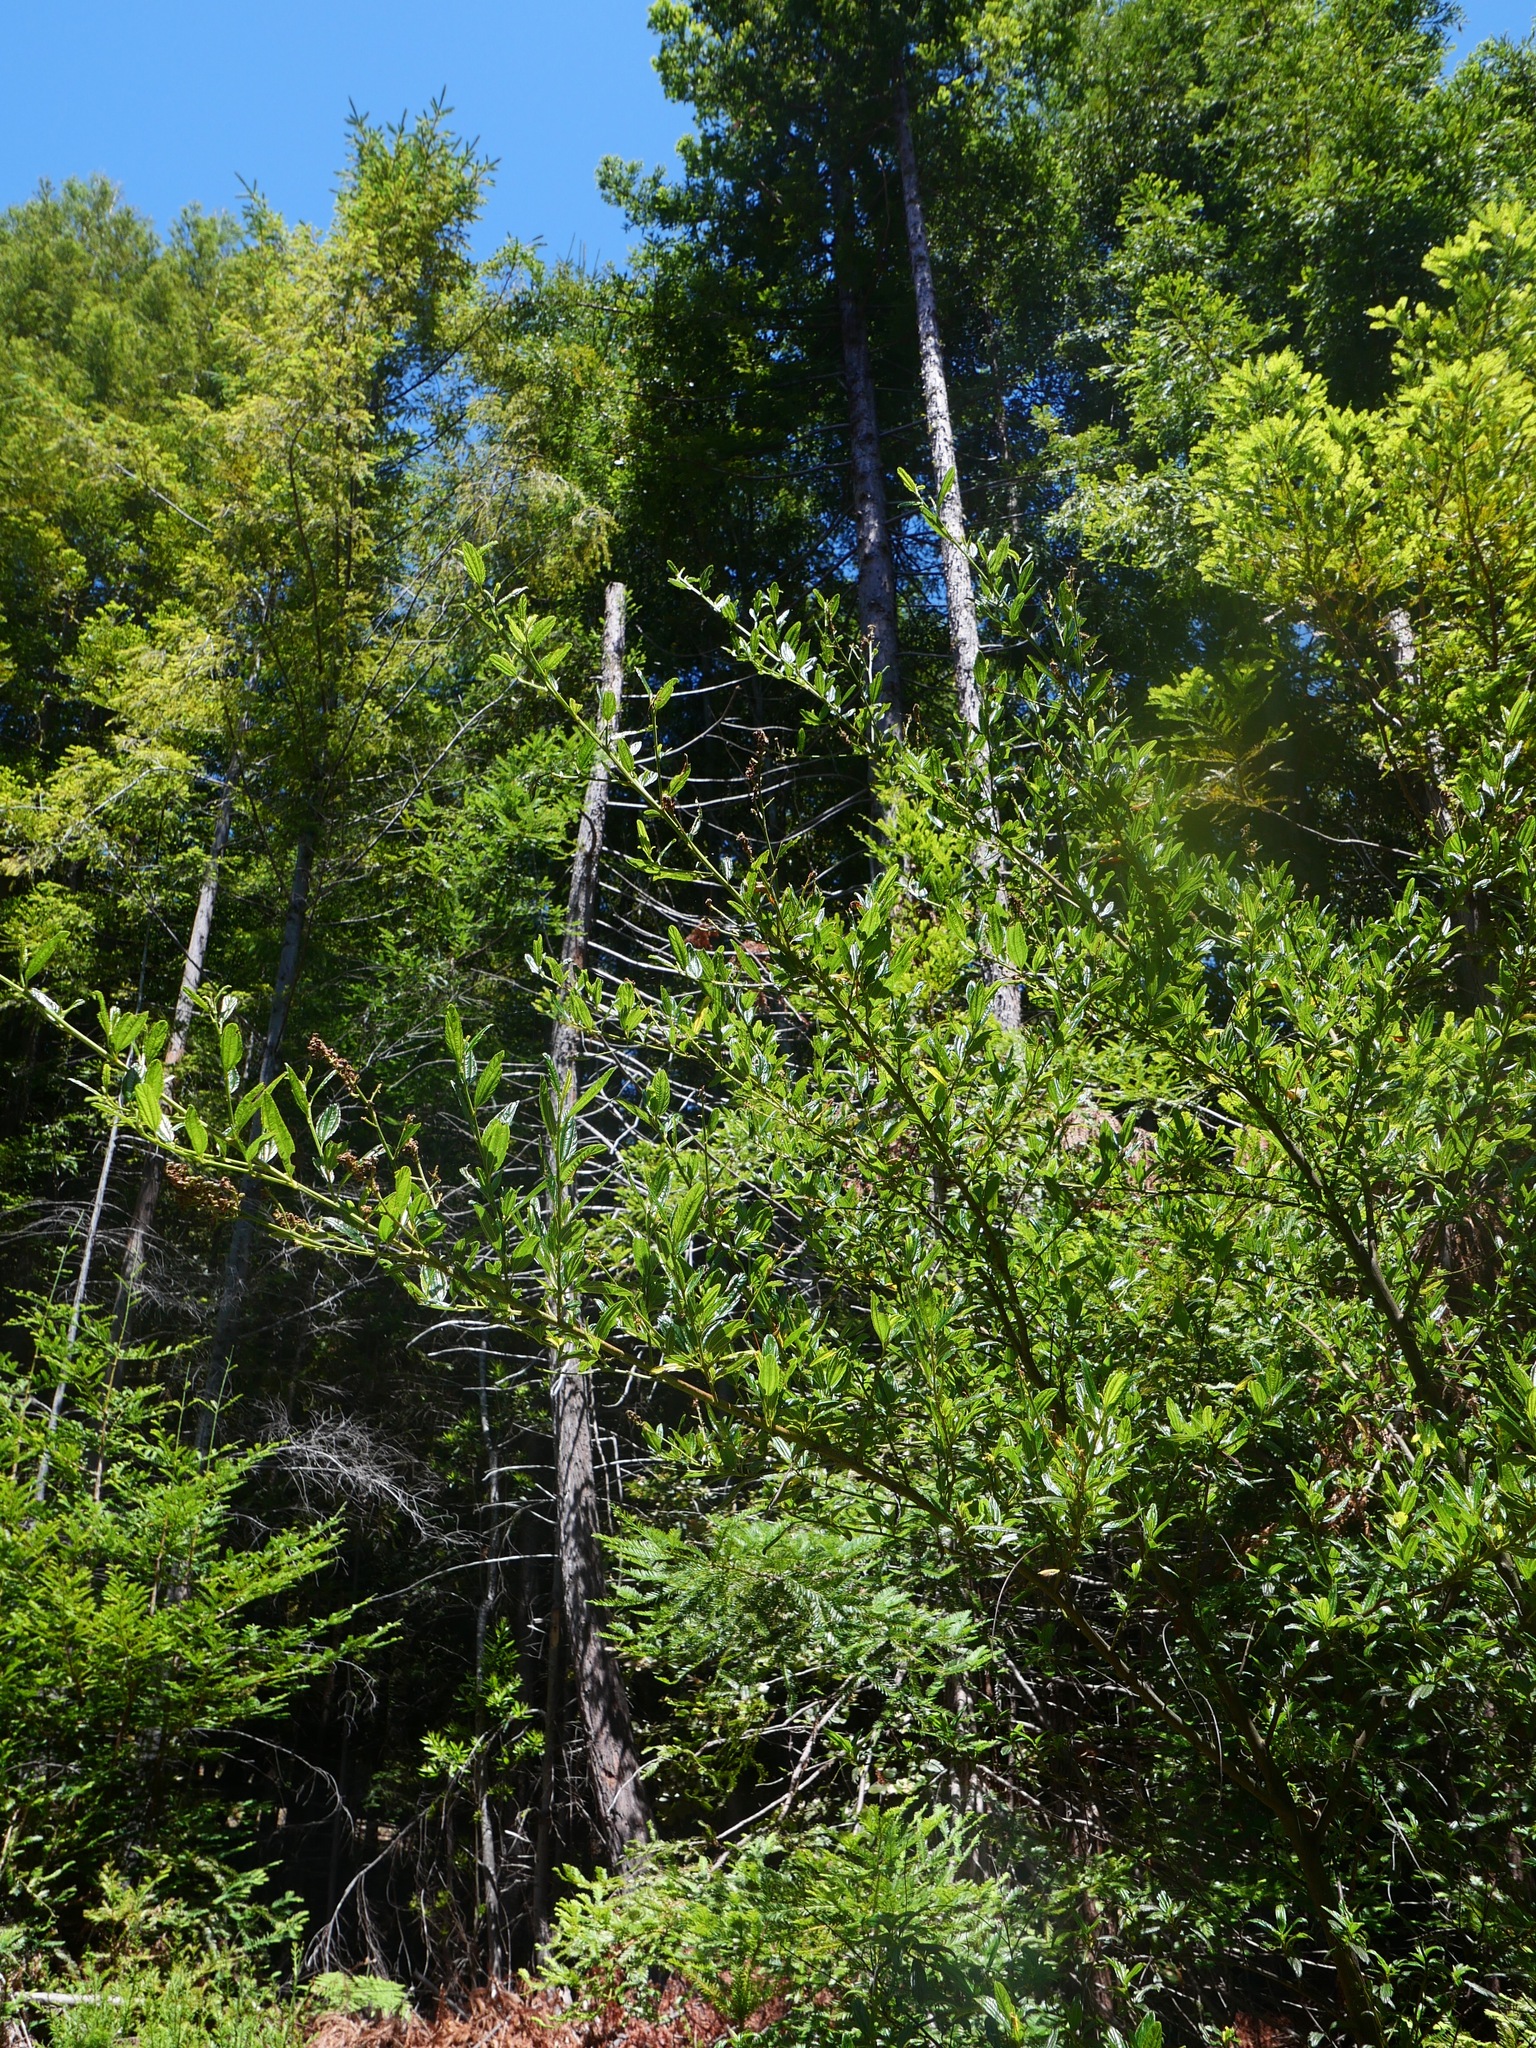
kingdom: Plantae
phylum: Tracheophyta
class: Magnoliopsida
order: Rosales
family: Rhamnaceae
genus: Ceanothus
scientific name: Ceanothus thyrsiflorus
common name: California-lilac
